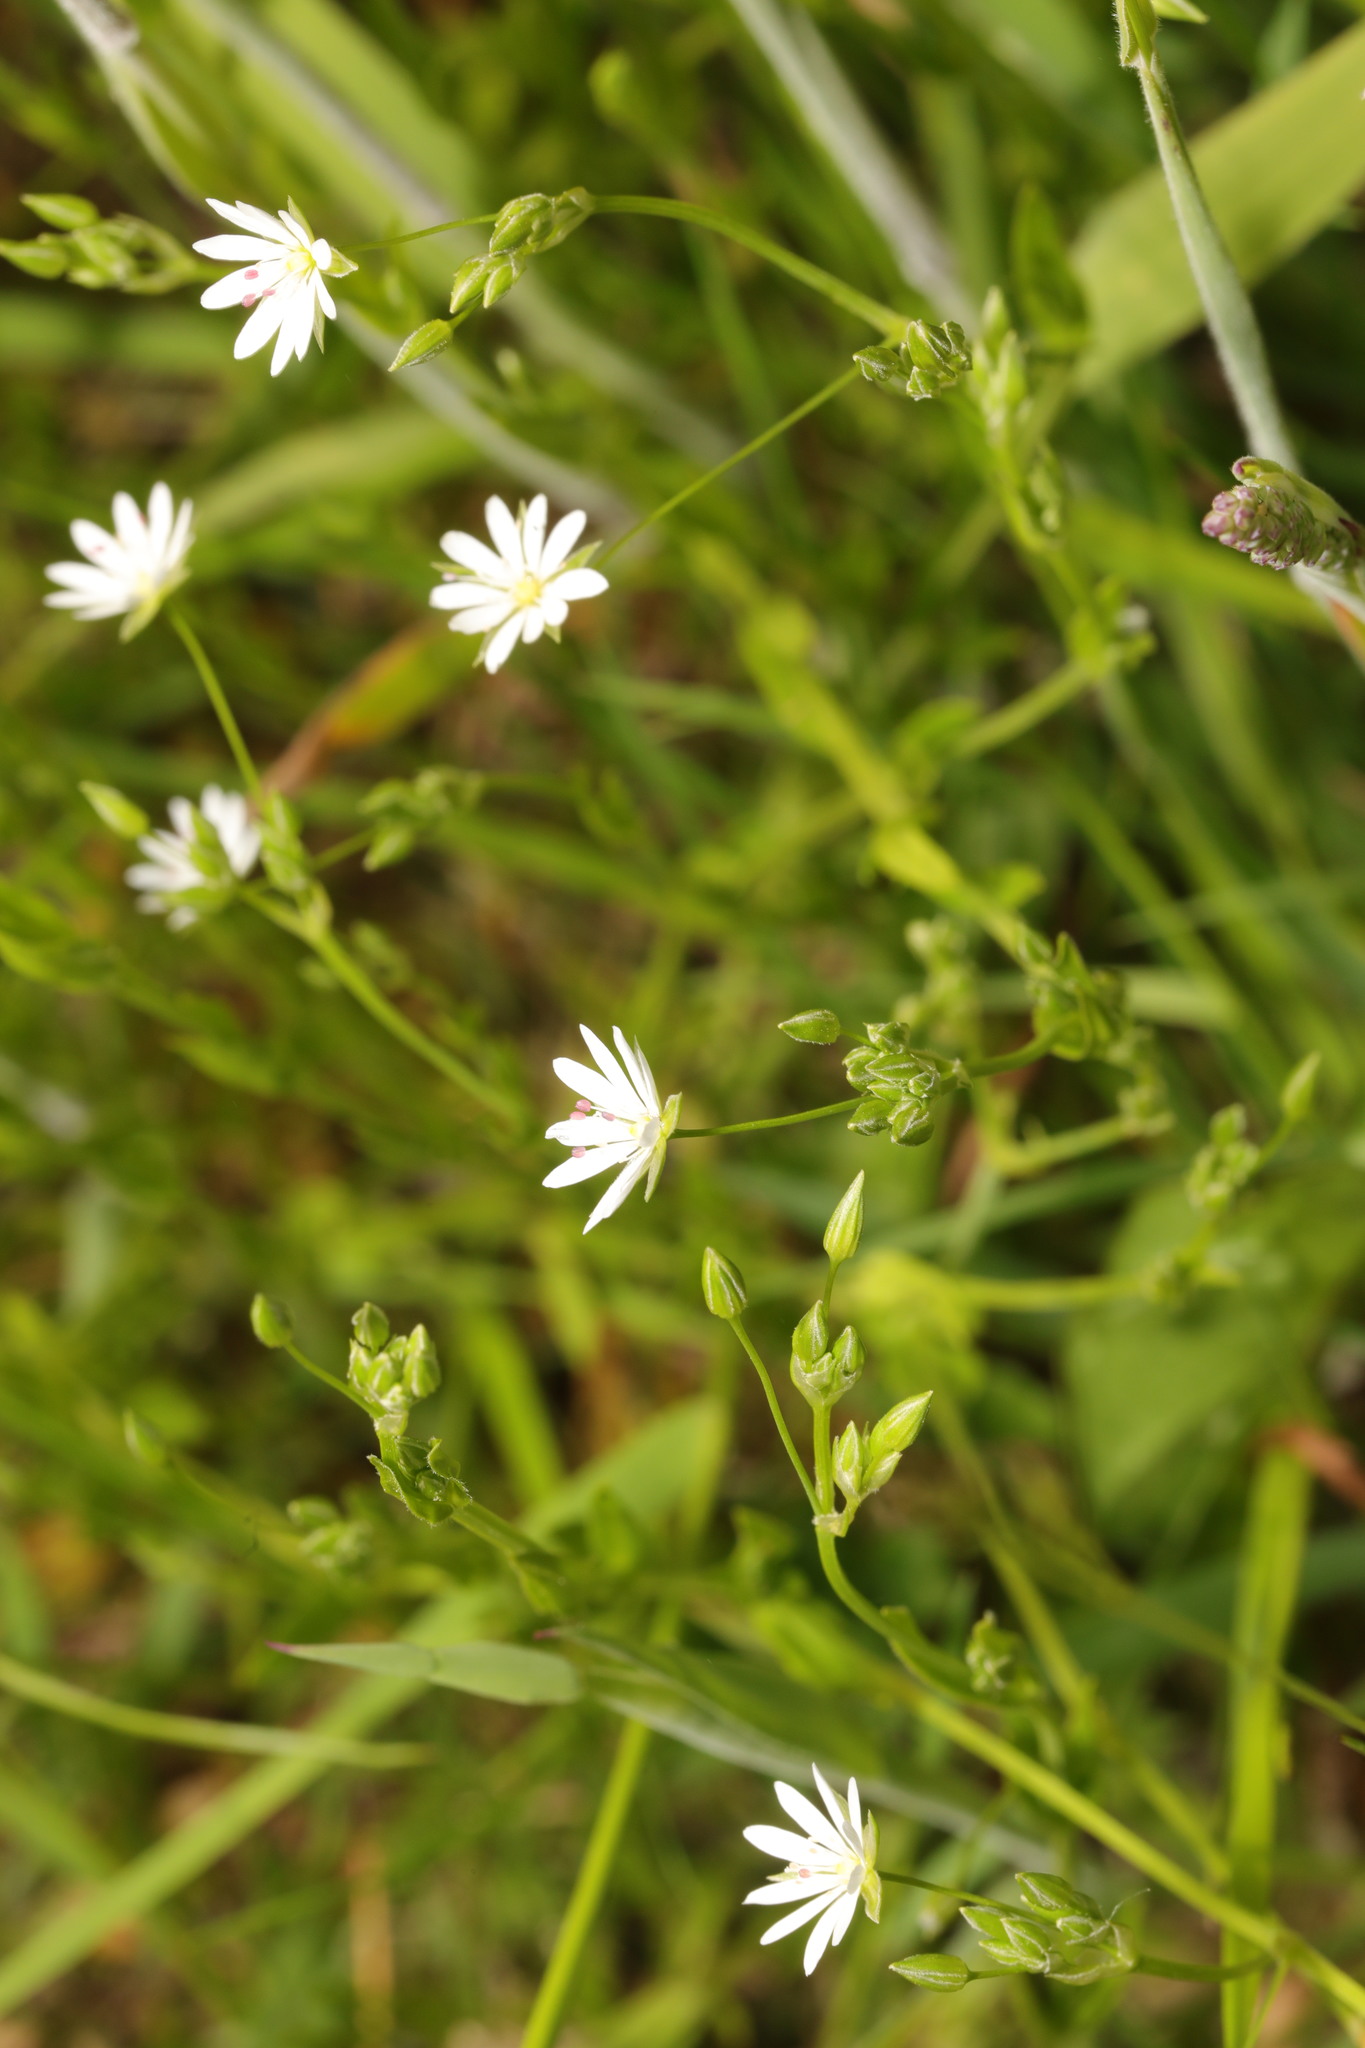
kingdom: Plantae
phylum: Tracheophyta
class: Magnoliopsida
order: Caryophyllales
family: Caryophyllaceae
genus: Stellaria
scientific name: Stellaria graminea
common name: Grass-like starwort
